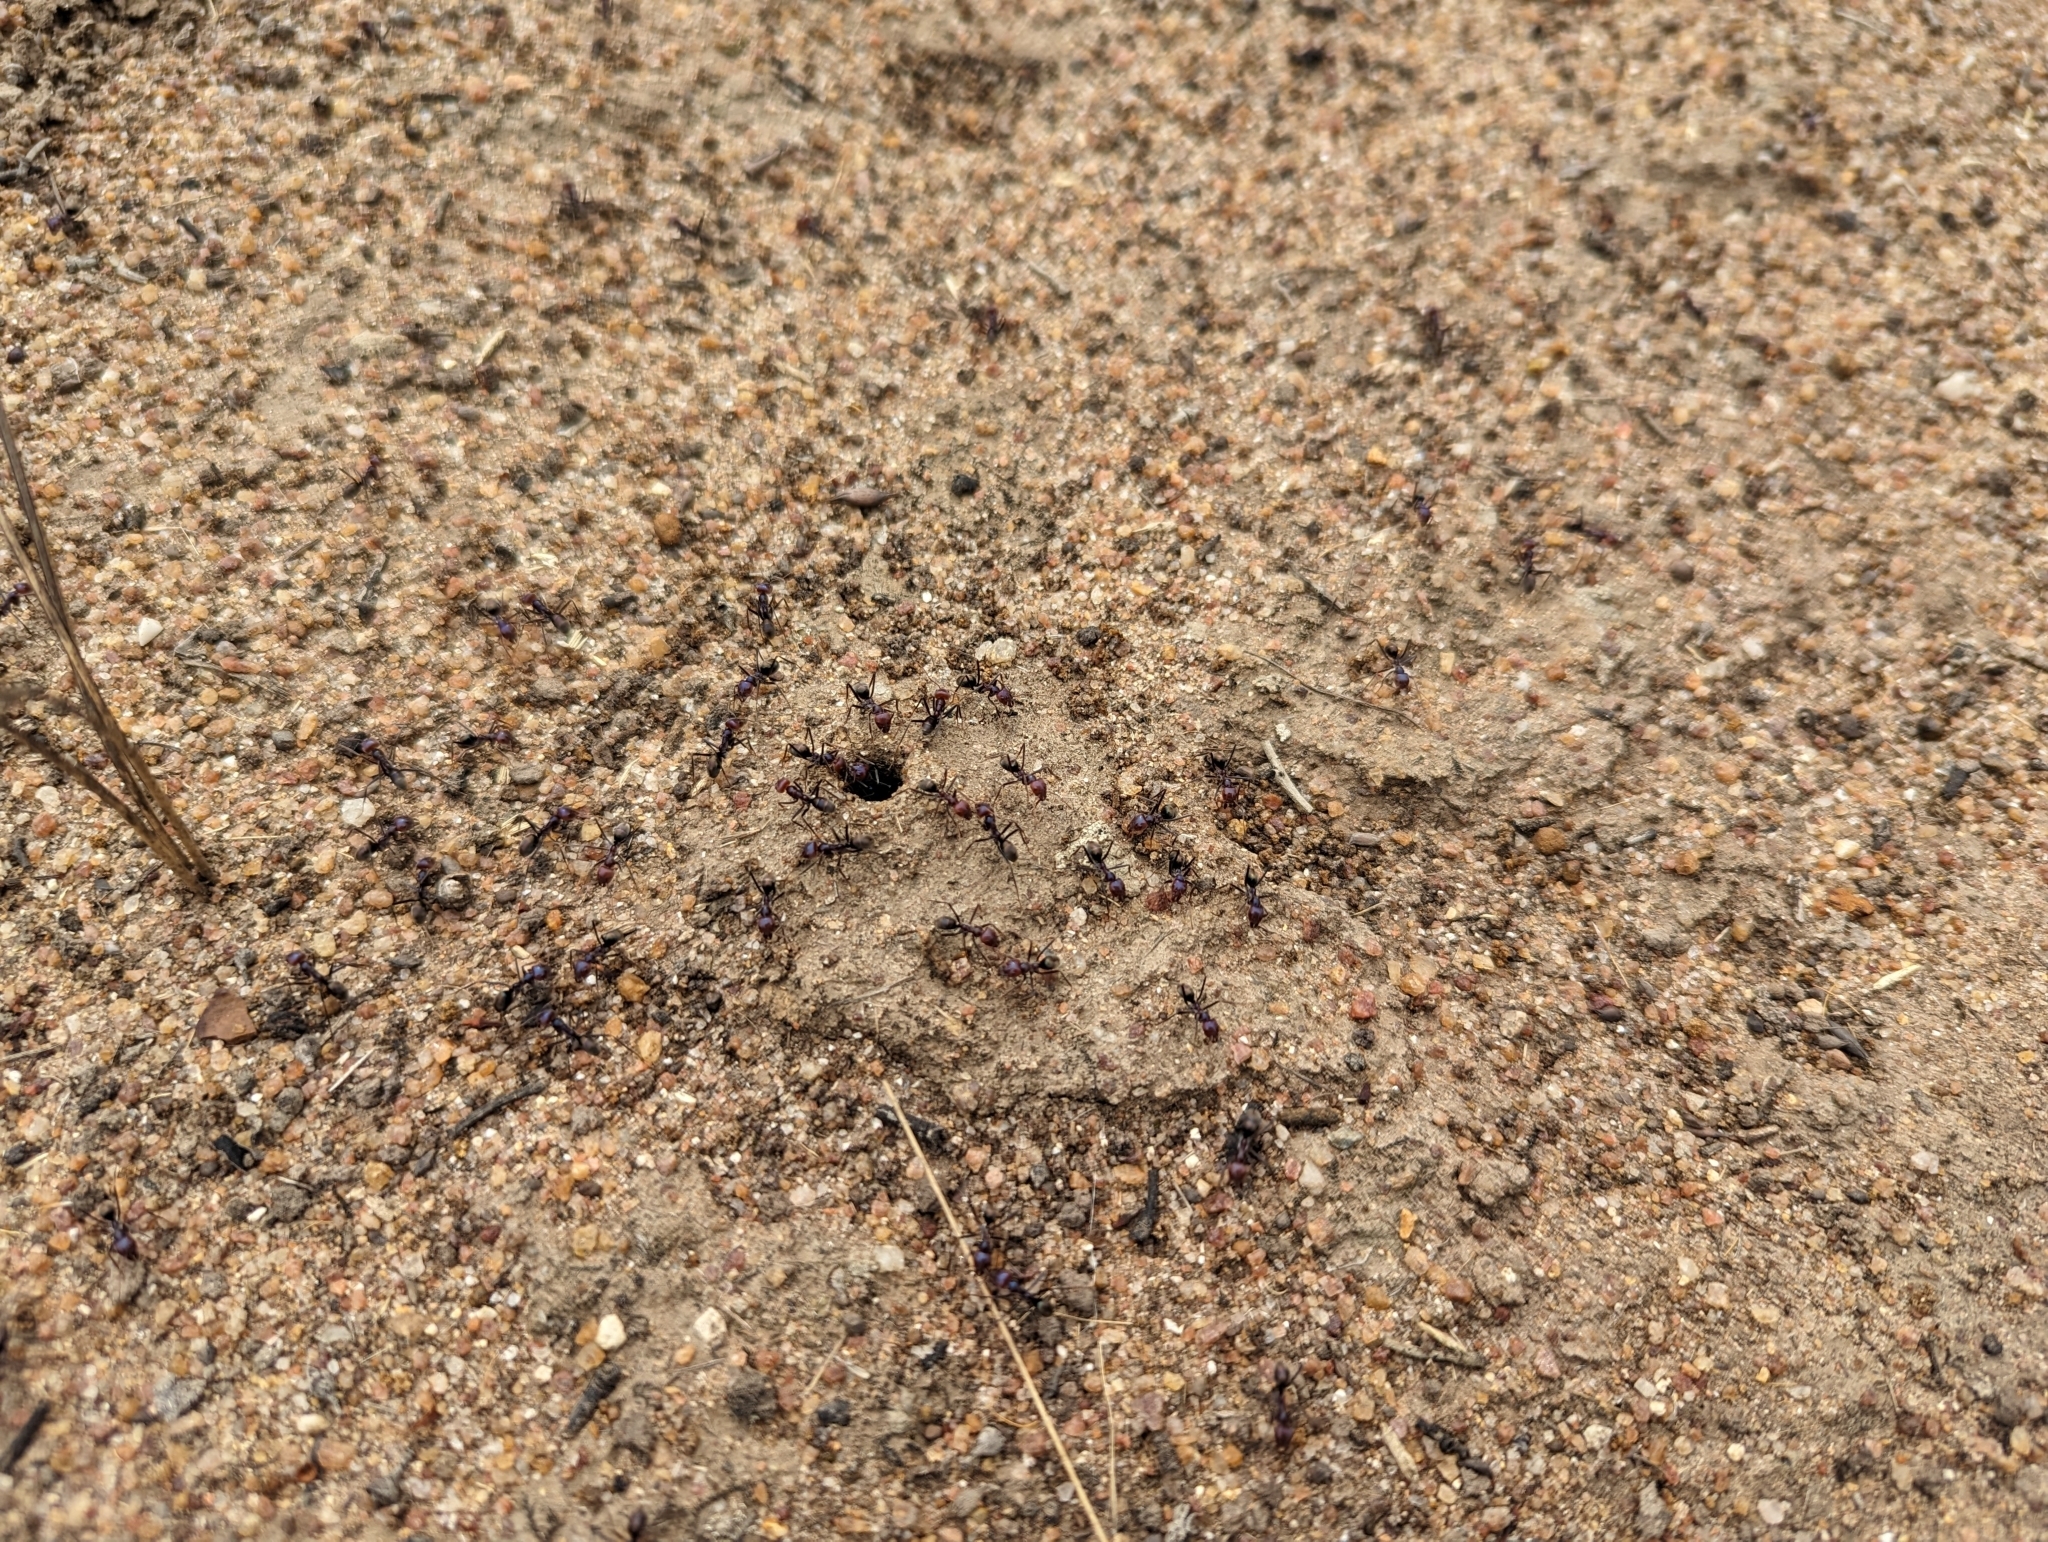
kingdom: Animalia
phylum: Arthropoda
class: Insecta
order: Hymenoptera
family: Formicidae
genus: Iridomyrmex
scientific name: Iridomyrmex purpureus
